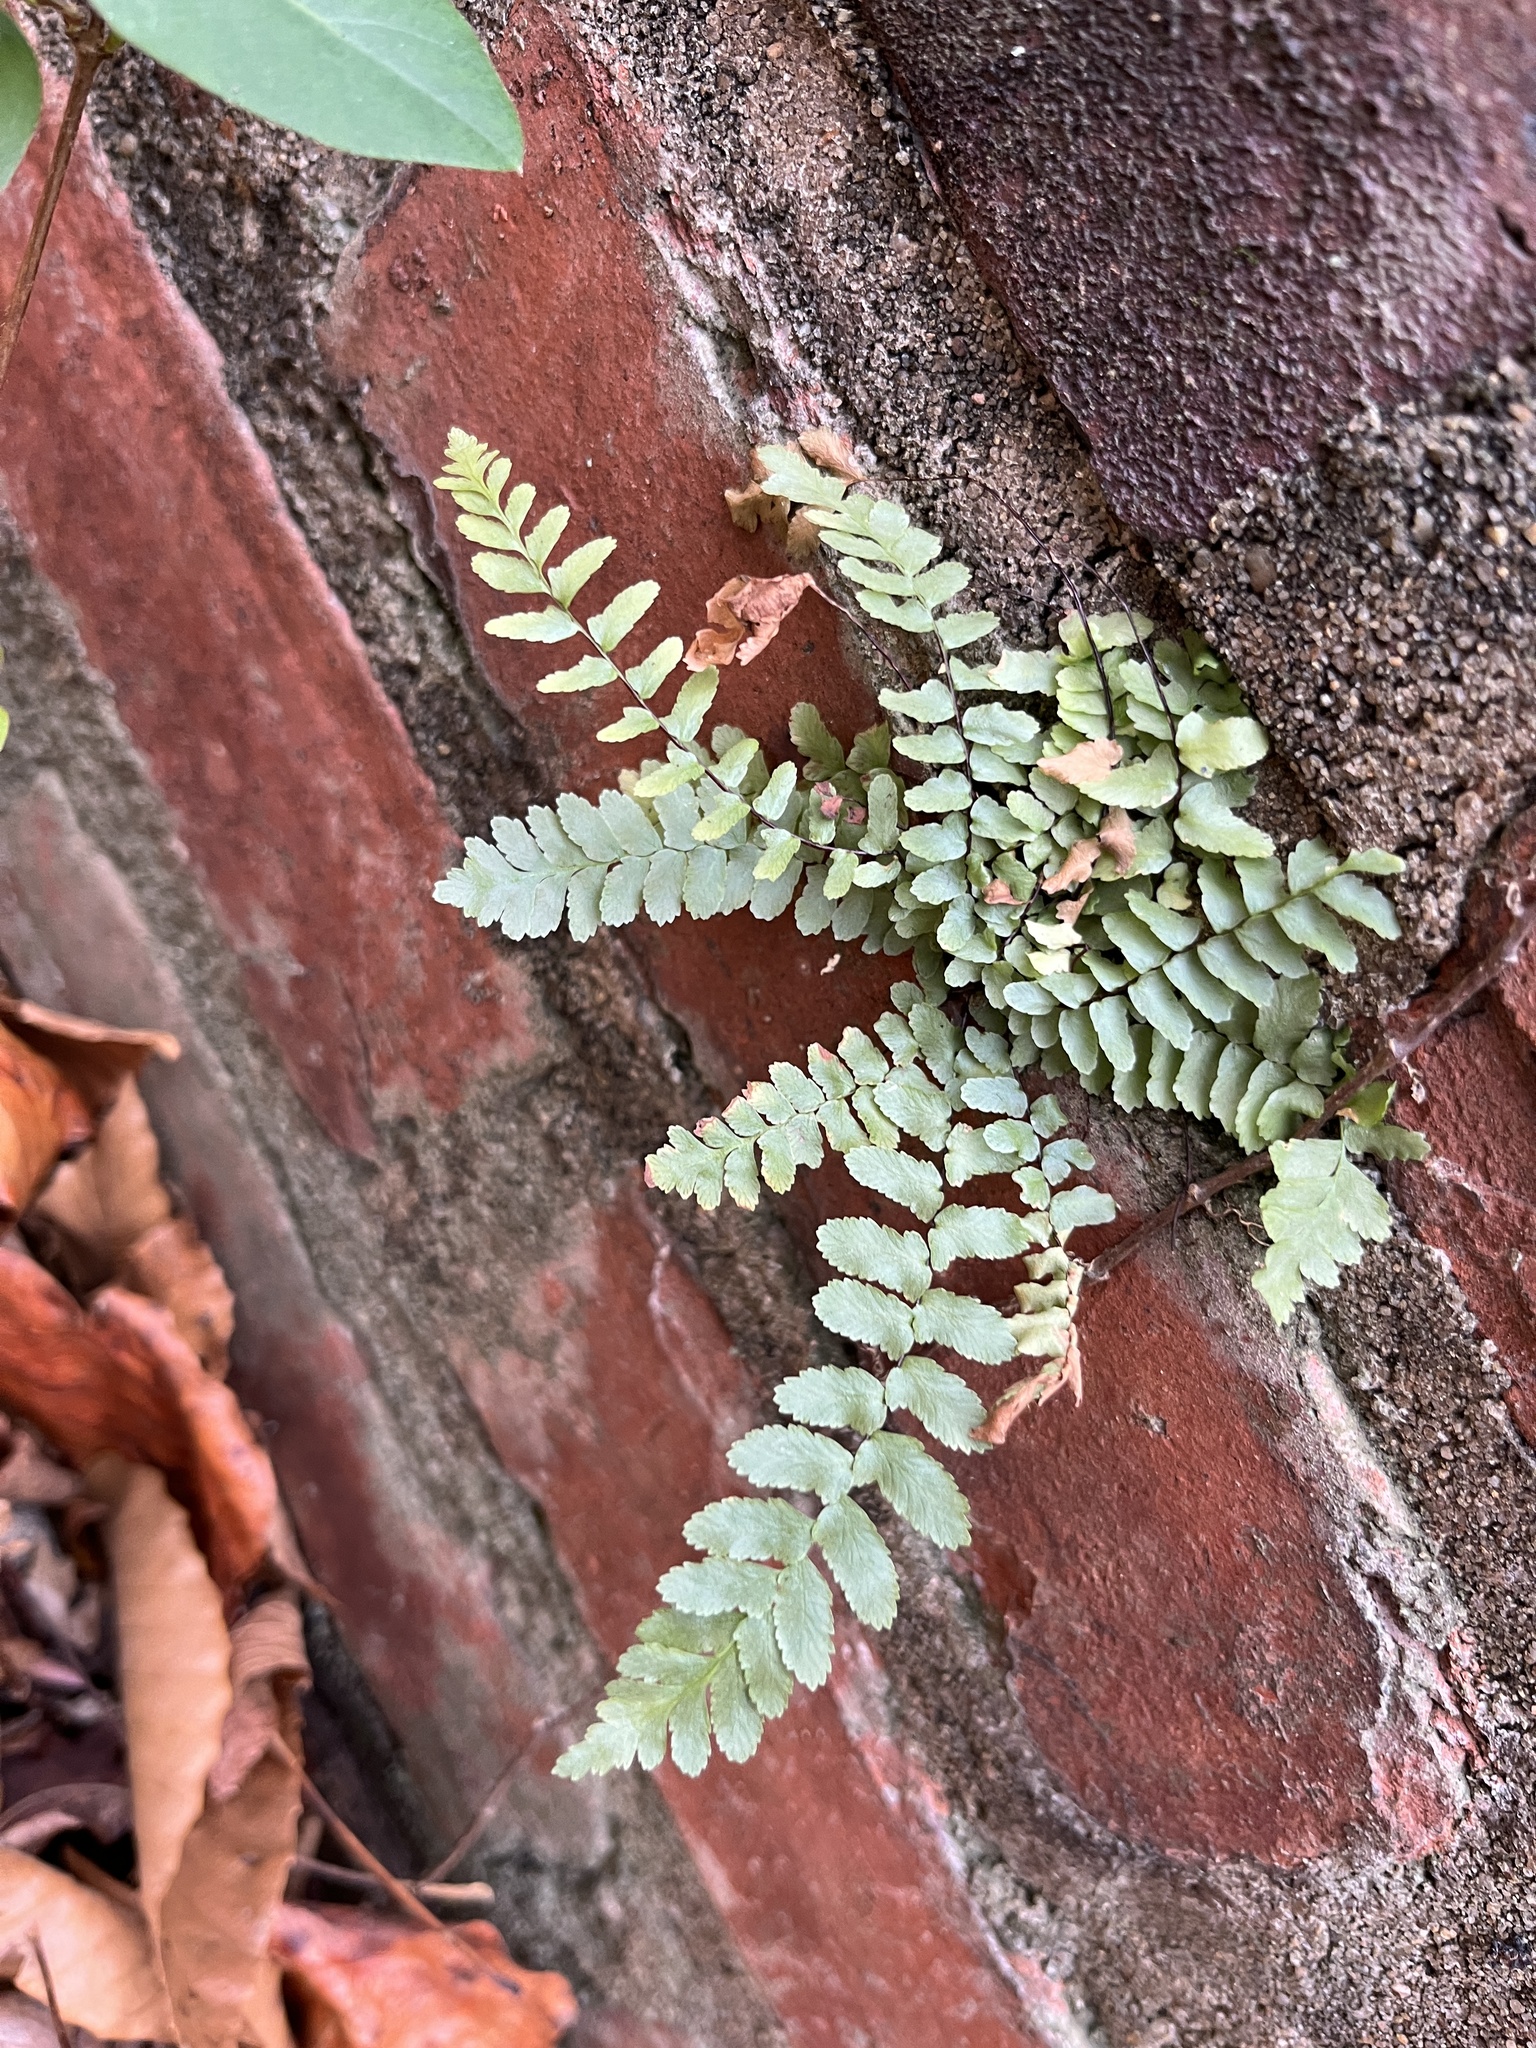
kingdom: Plantae
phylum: Tracheophyta
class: Polypodiopsida
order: Polypodiales
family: Aspleniaceae
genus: Asplenium
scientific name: Asplenium platyneuron
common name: Ebony spleenwort
